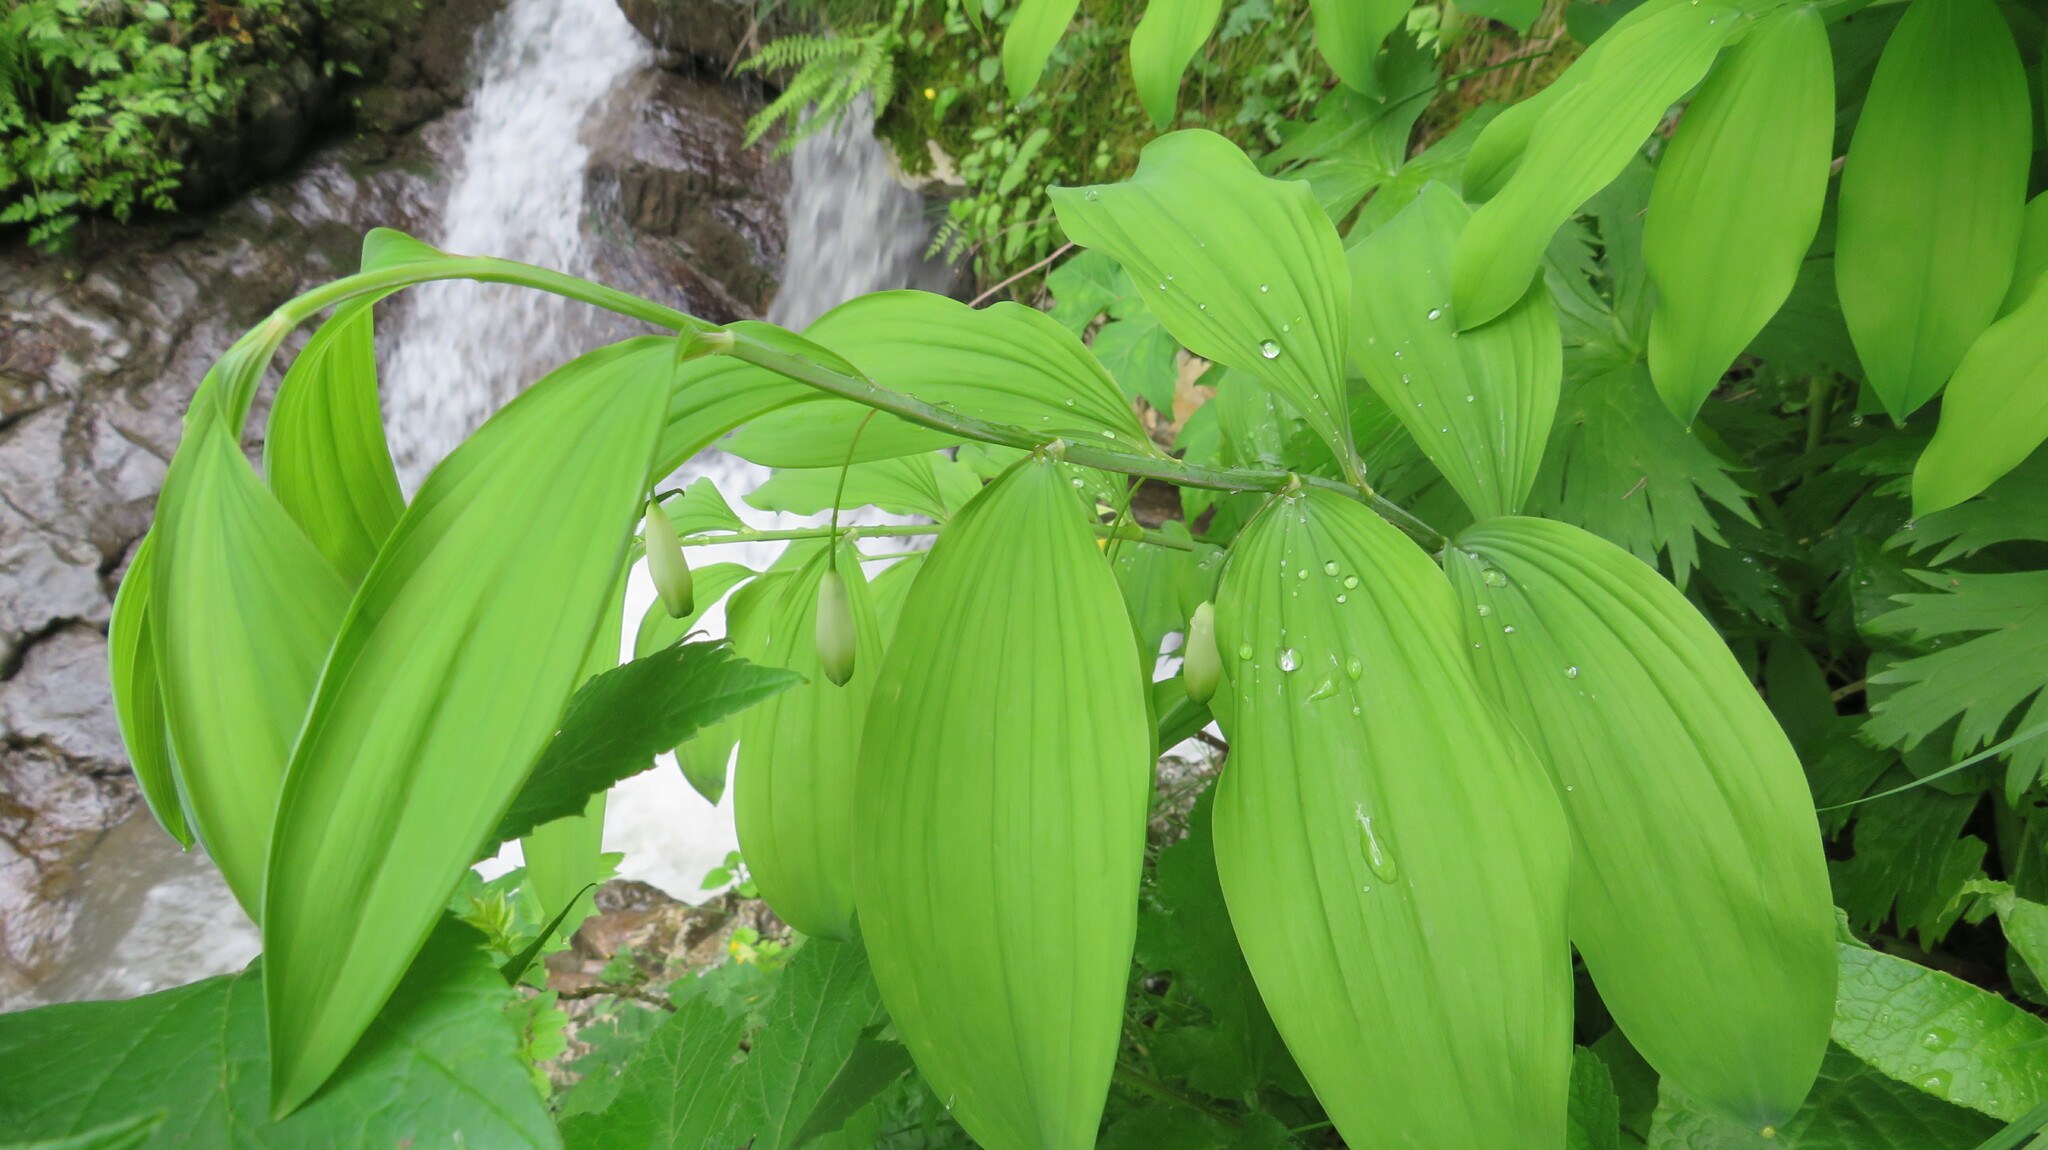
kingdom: Plantae
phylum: Tracheophyta
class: Liliopsida
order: Asparagales
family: Asparagaceae
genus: Polygonatum
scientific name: Polygonatum multiflorum
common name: Solomon's-seal
